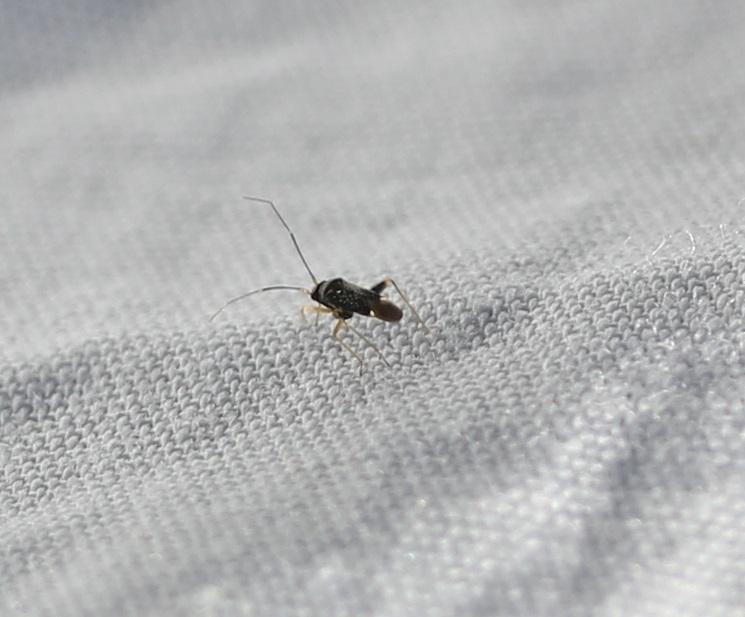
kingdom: Animalia
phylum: Arthropoda
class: Insecta
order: Hemiptera
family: Miridae
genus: Microtechnites
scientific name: Microtechnites bractatus
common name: Garden fleahopper
